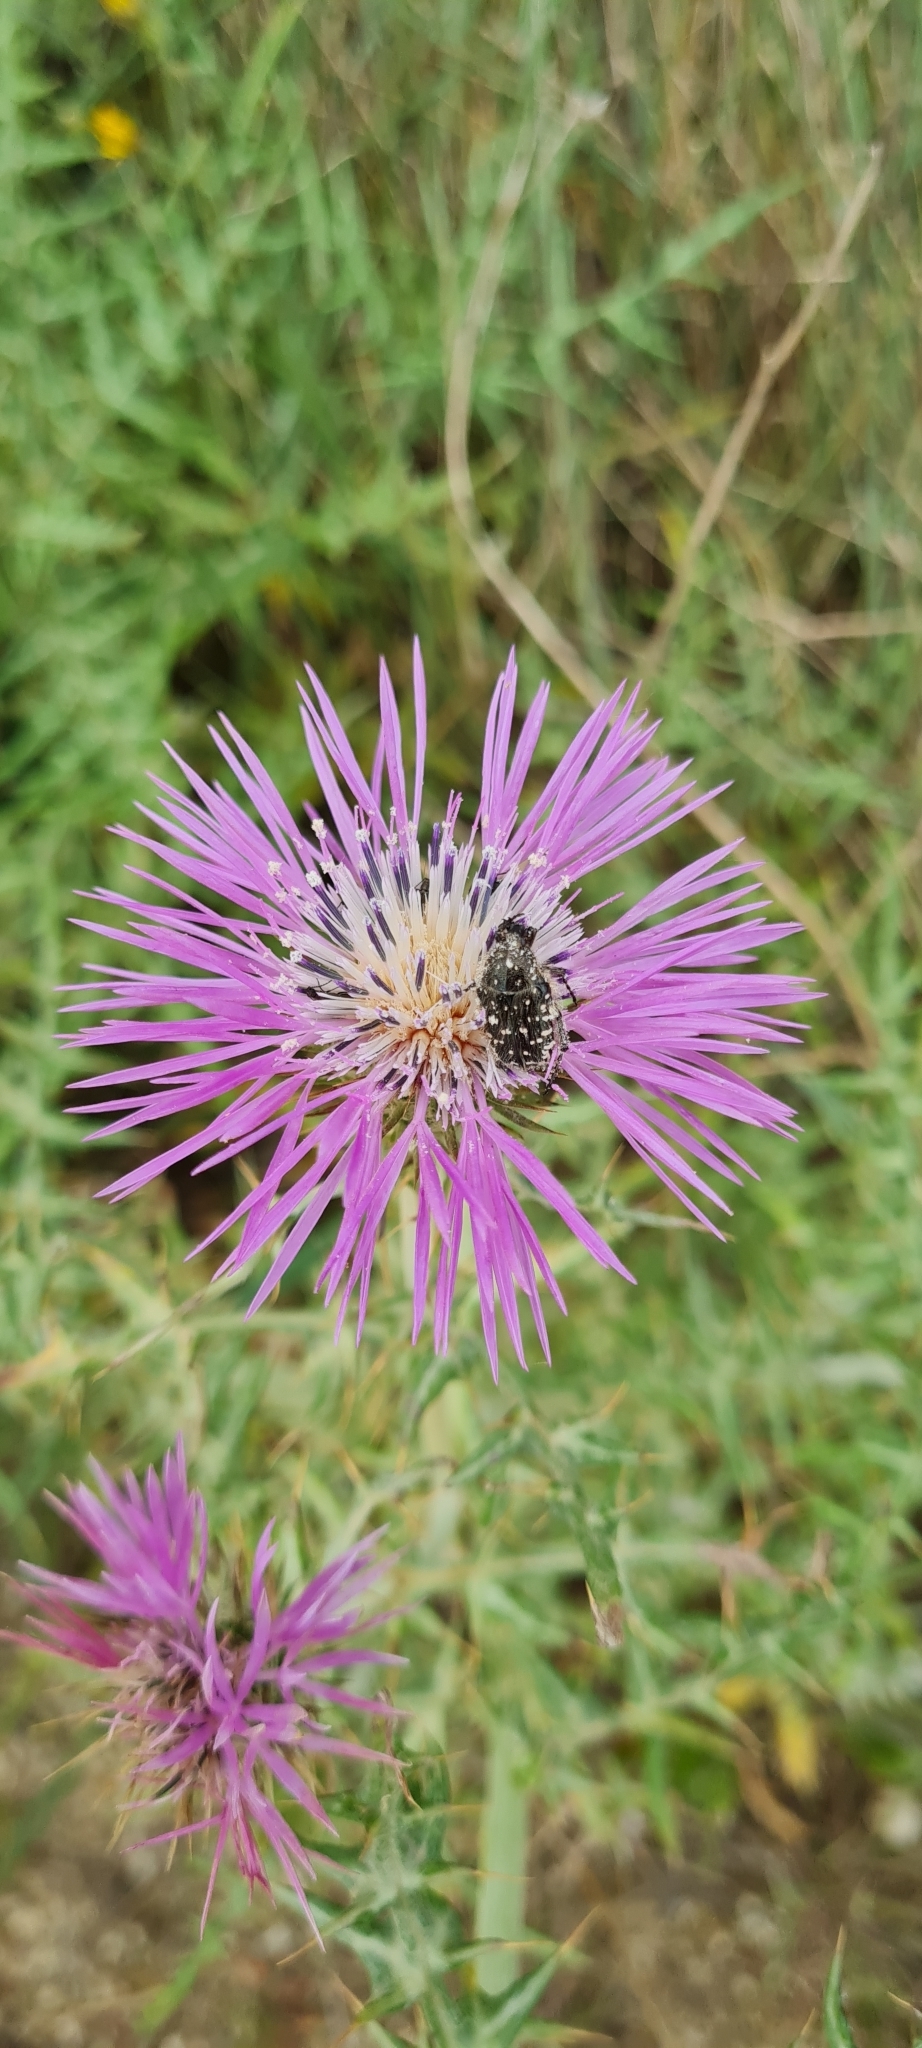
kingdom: Animalia
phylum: Arthropoda
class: Insecta
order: Coleoptera
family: Scarabaeidae
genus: Oxythyrea
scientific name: Oxythyrea funesta
